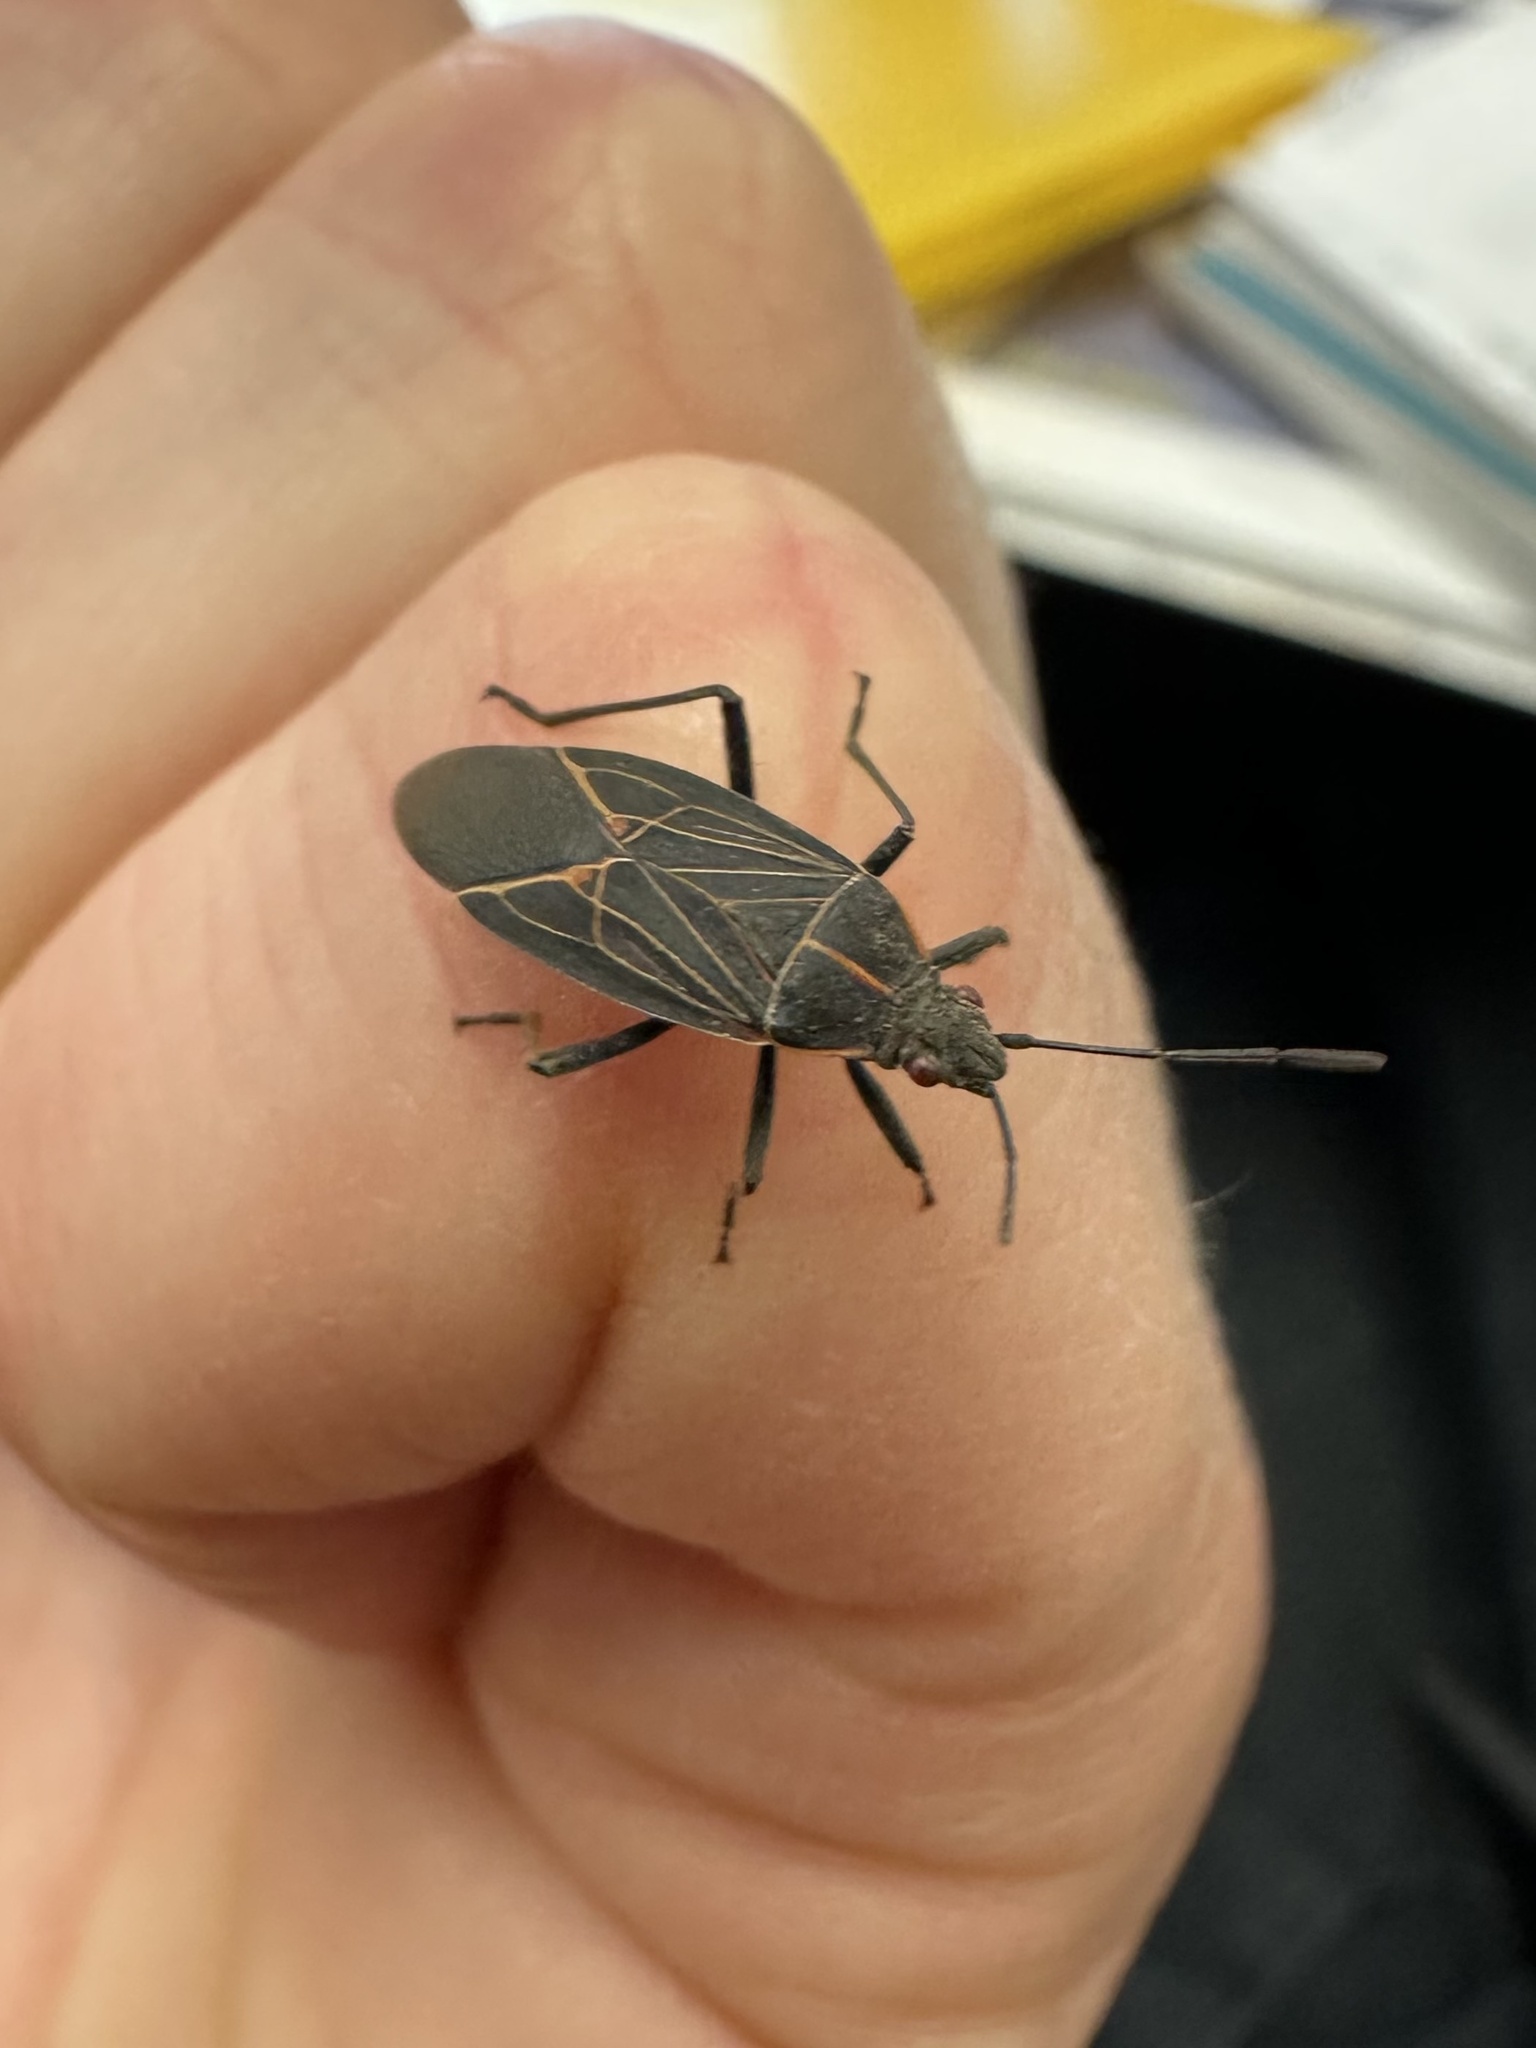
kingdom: Animalia
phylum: Arthropoda
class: Insecta
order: Hemiptera
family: Rhopalidae
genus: Boisea
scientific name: Boisea rubrolineata
